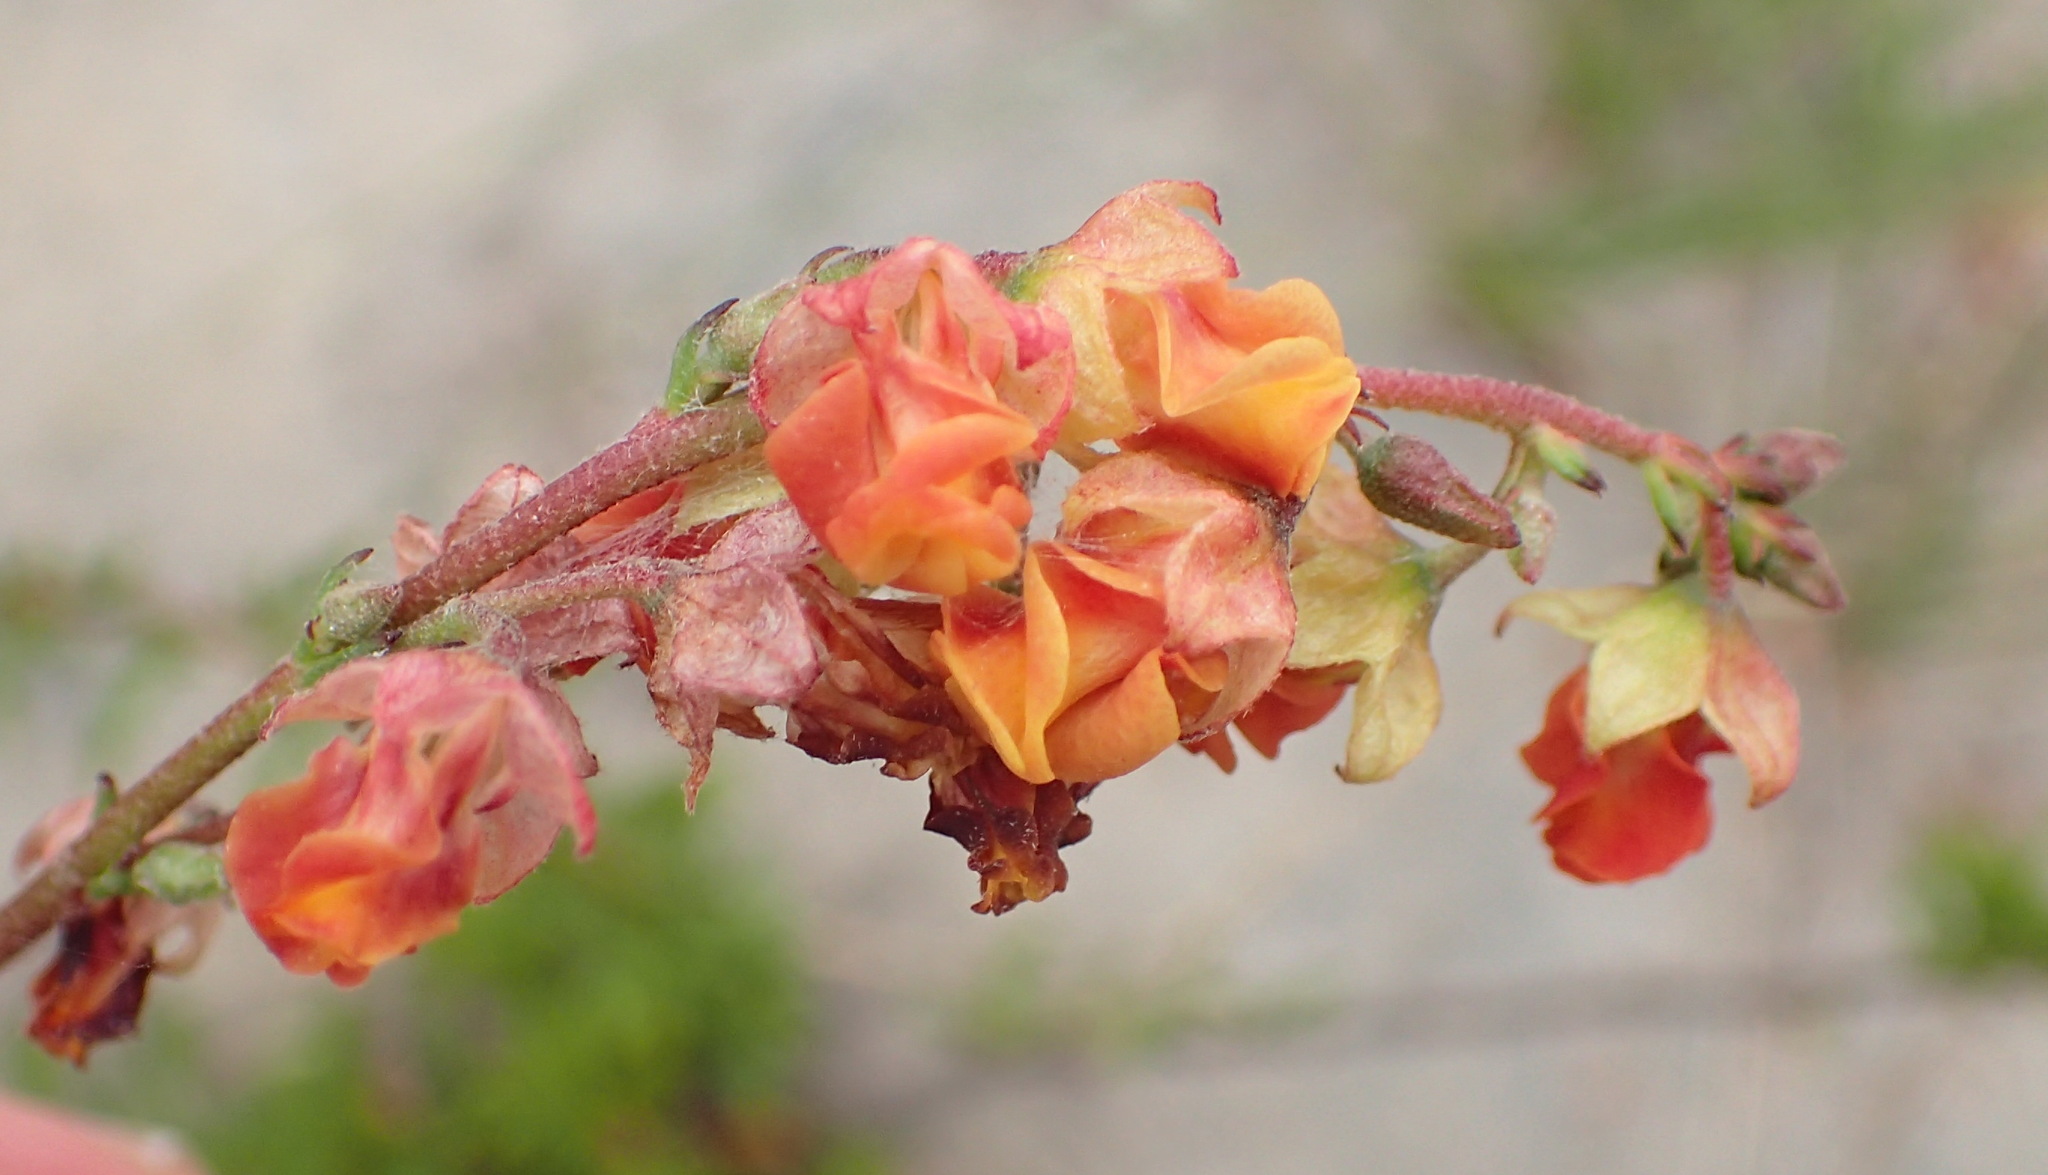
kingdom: Plantae
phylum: Tracheophyta
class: Magnoliopsida
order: Malvales
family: Malvaceae
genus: Hermannia
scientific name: Hermannia flammea
